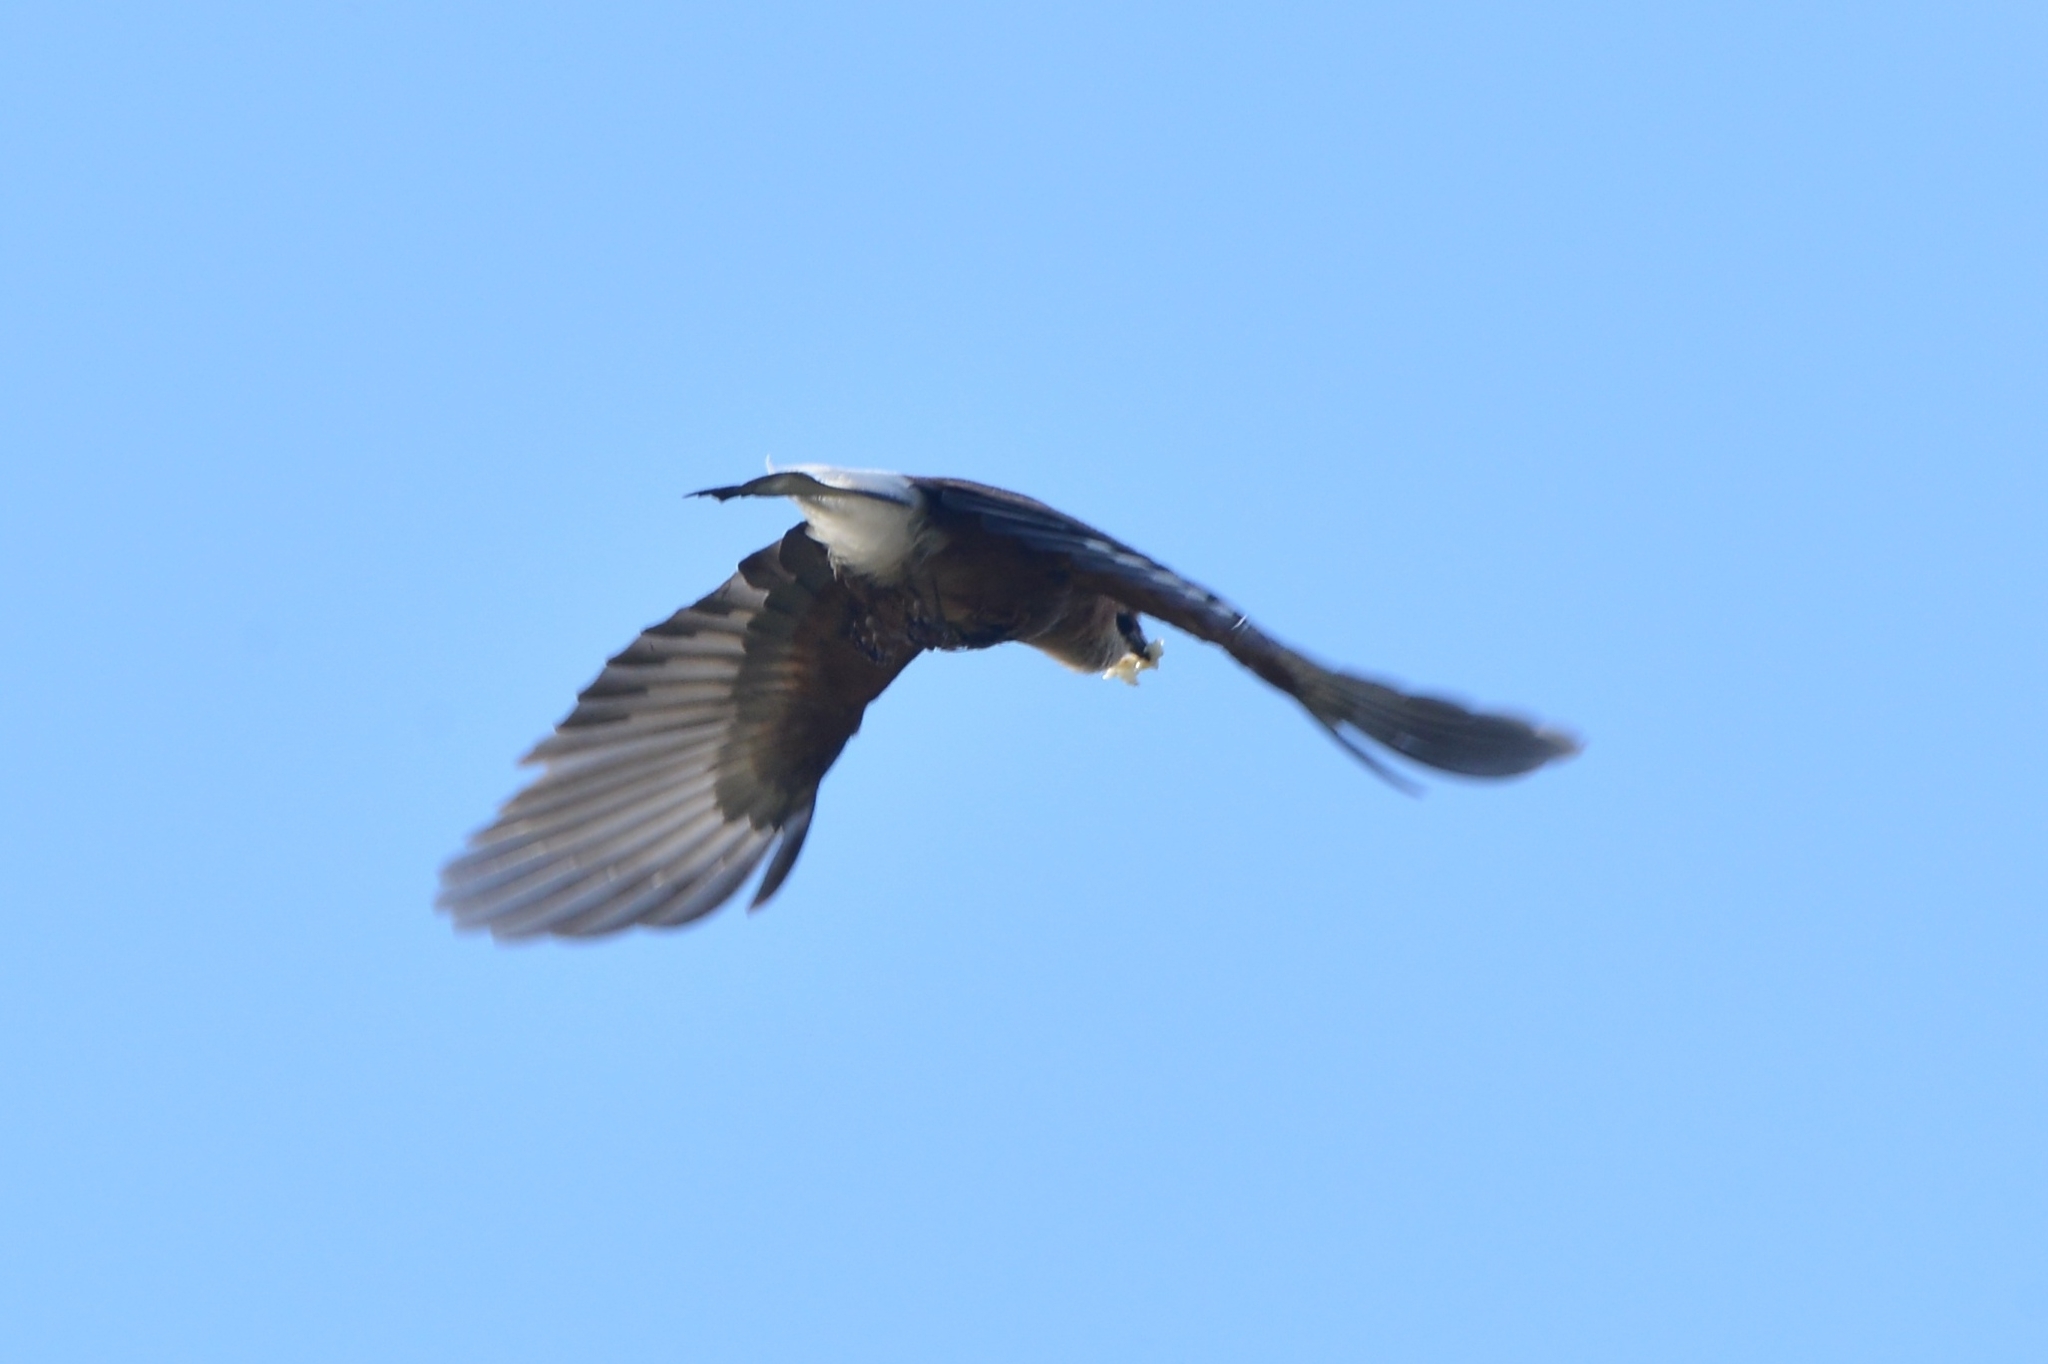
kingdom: Animalia
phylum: Chordata
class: Aves
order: Passeriformes
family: Corvidae
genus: Garrulus
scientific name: Garrulus glandarius
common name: Eurasian jay
